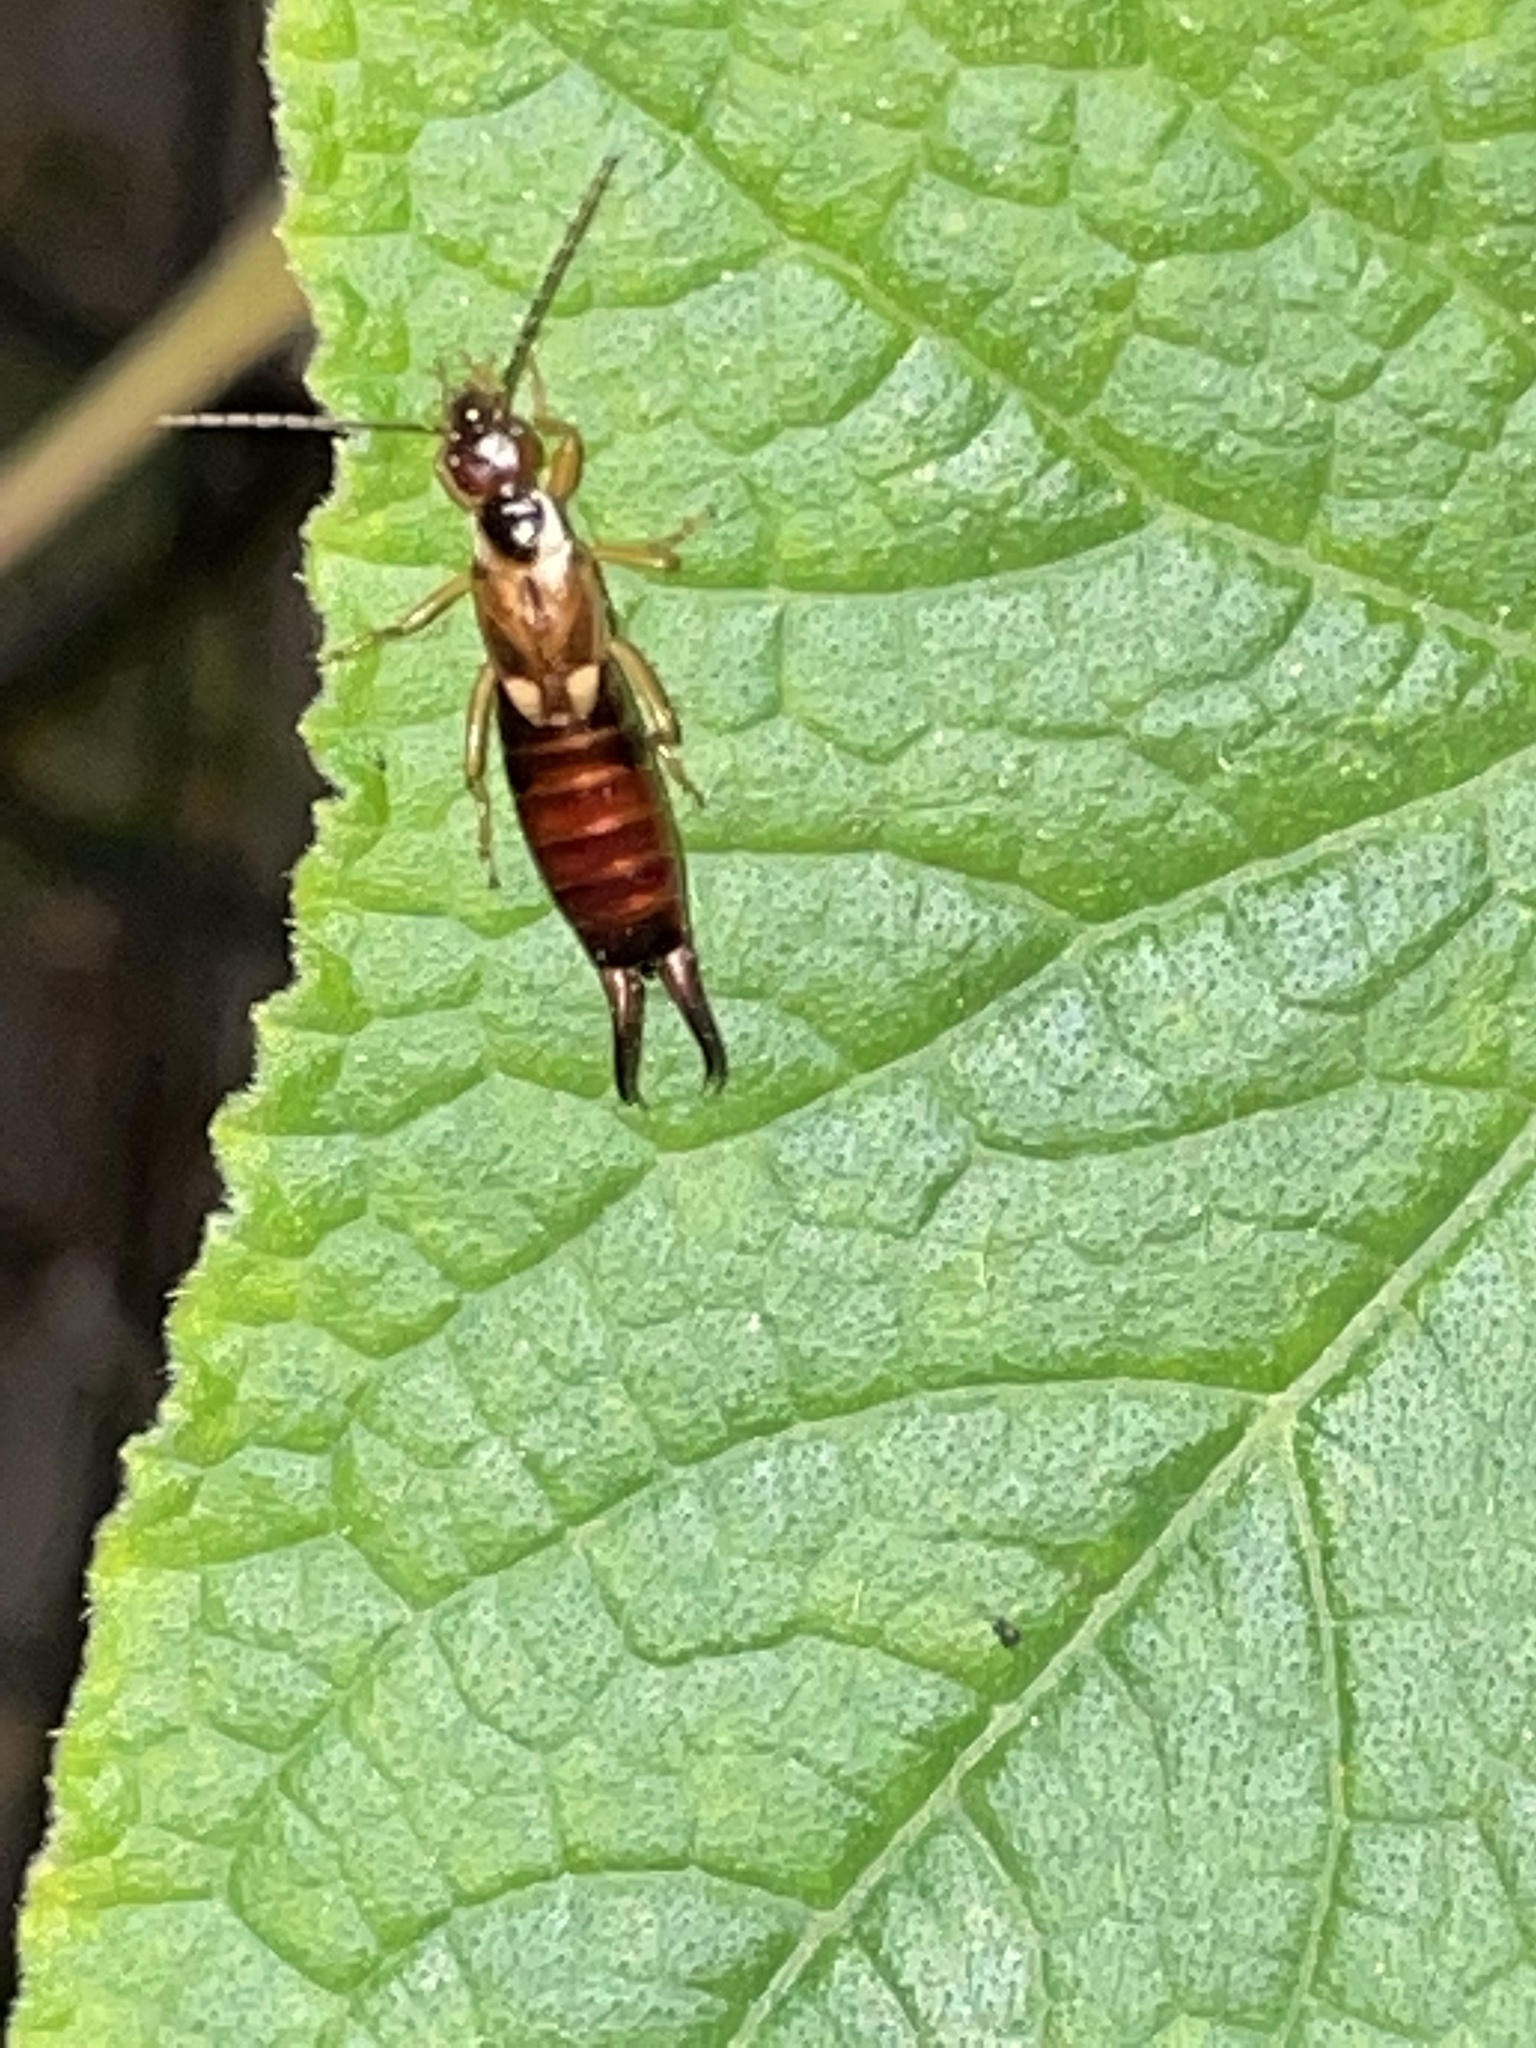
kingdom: Animalia
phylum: Arthropoda
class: Insecta
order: Dermaptera
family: Forficulidae
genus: Forficula
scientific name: Forficula
